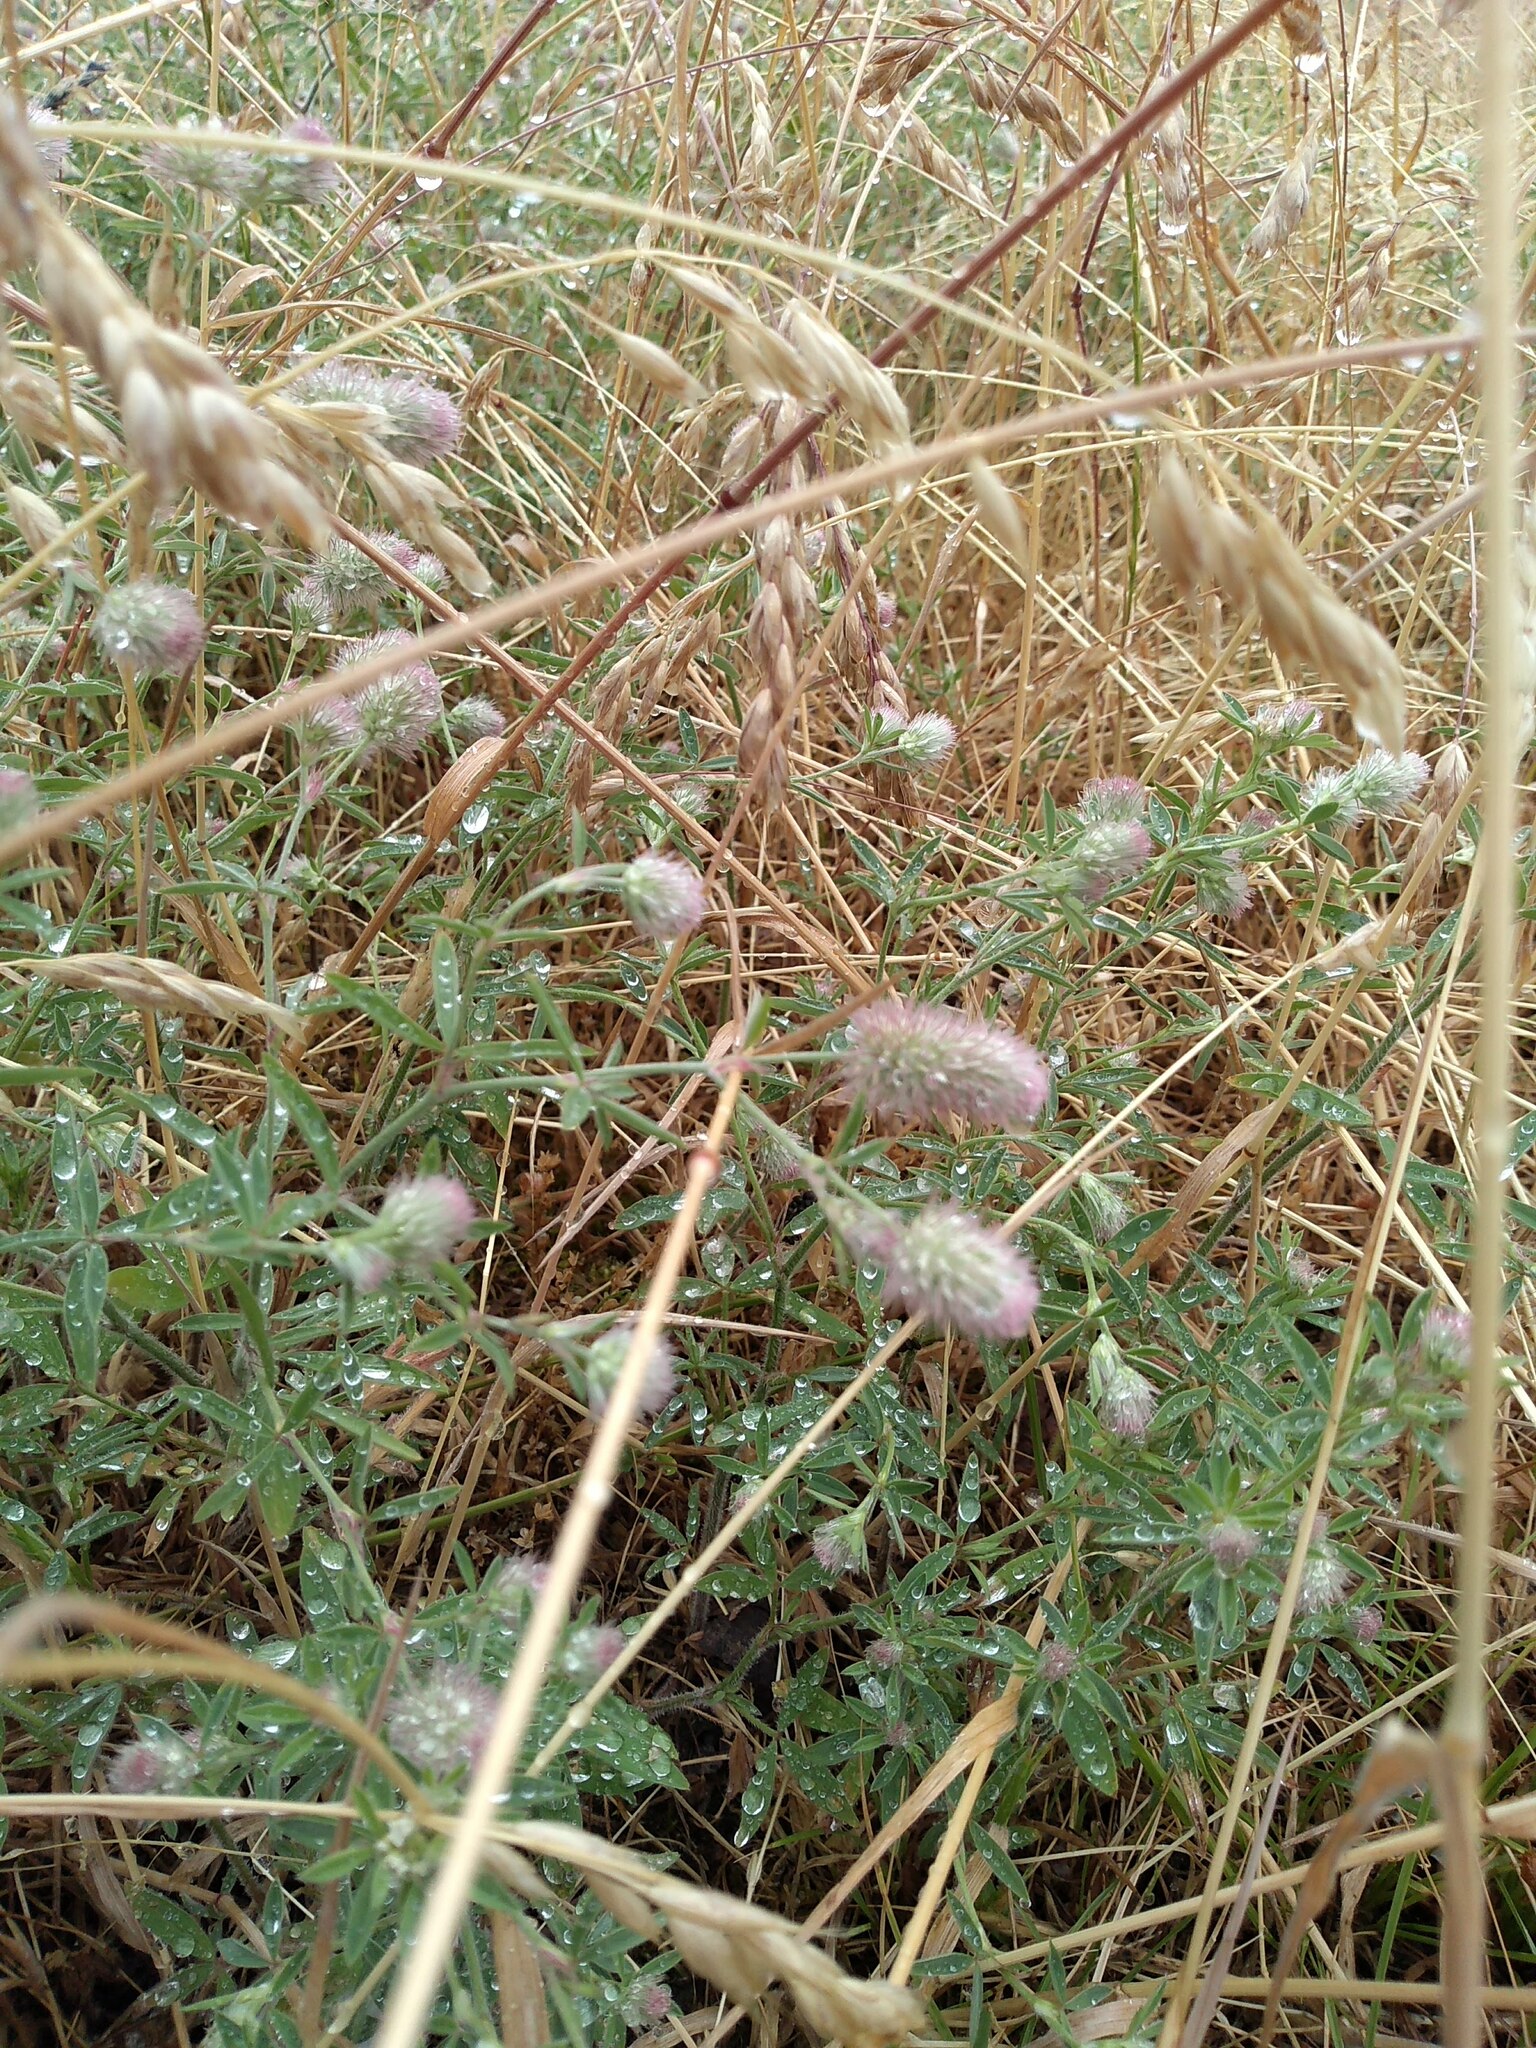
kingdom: Plantae
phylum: Tracheophyta
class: Magnoliopsida
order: Fabales
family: Fabaceae
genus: Trifolium
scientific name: Trifolium arvense
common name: Hare's-foot clover
